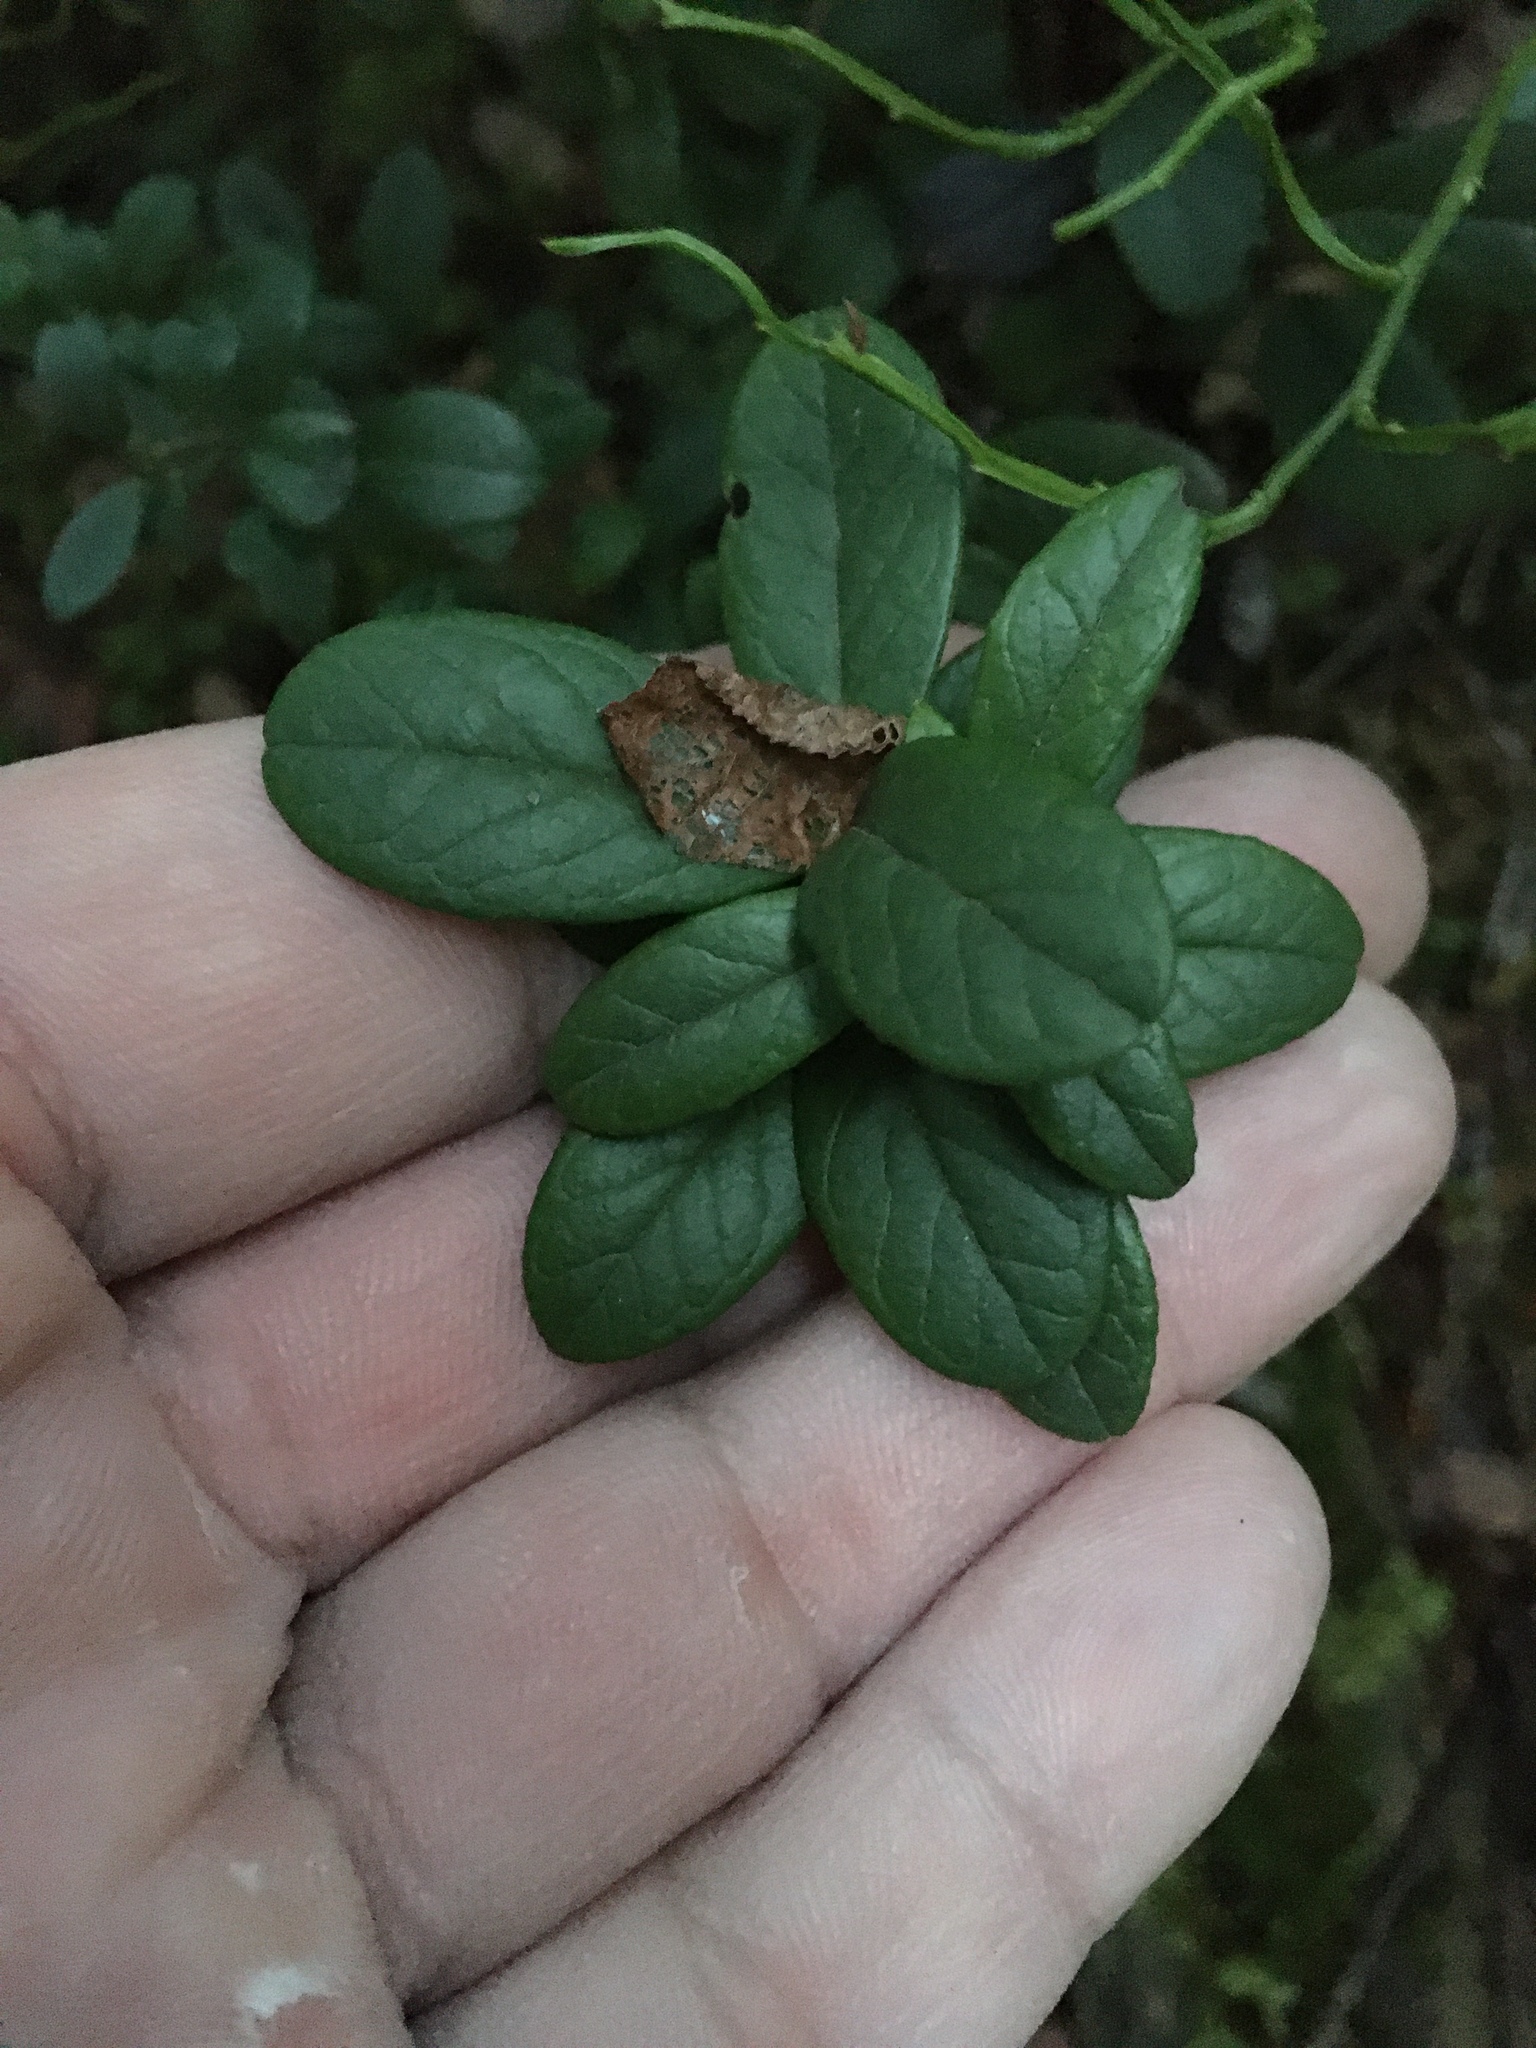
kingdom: Plantae
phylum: Tracheophyta
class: Magnoliopsida
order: Ericales
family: Ericaceae
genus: Vaccinium
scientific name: Vaccinium vitis-idaea
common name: Cowberry
